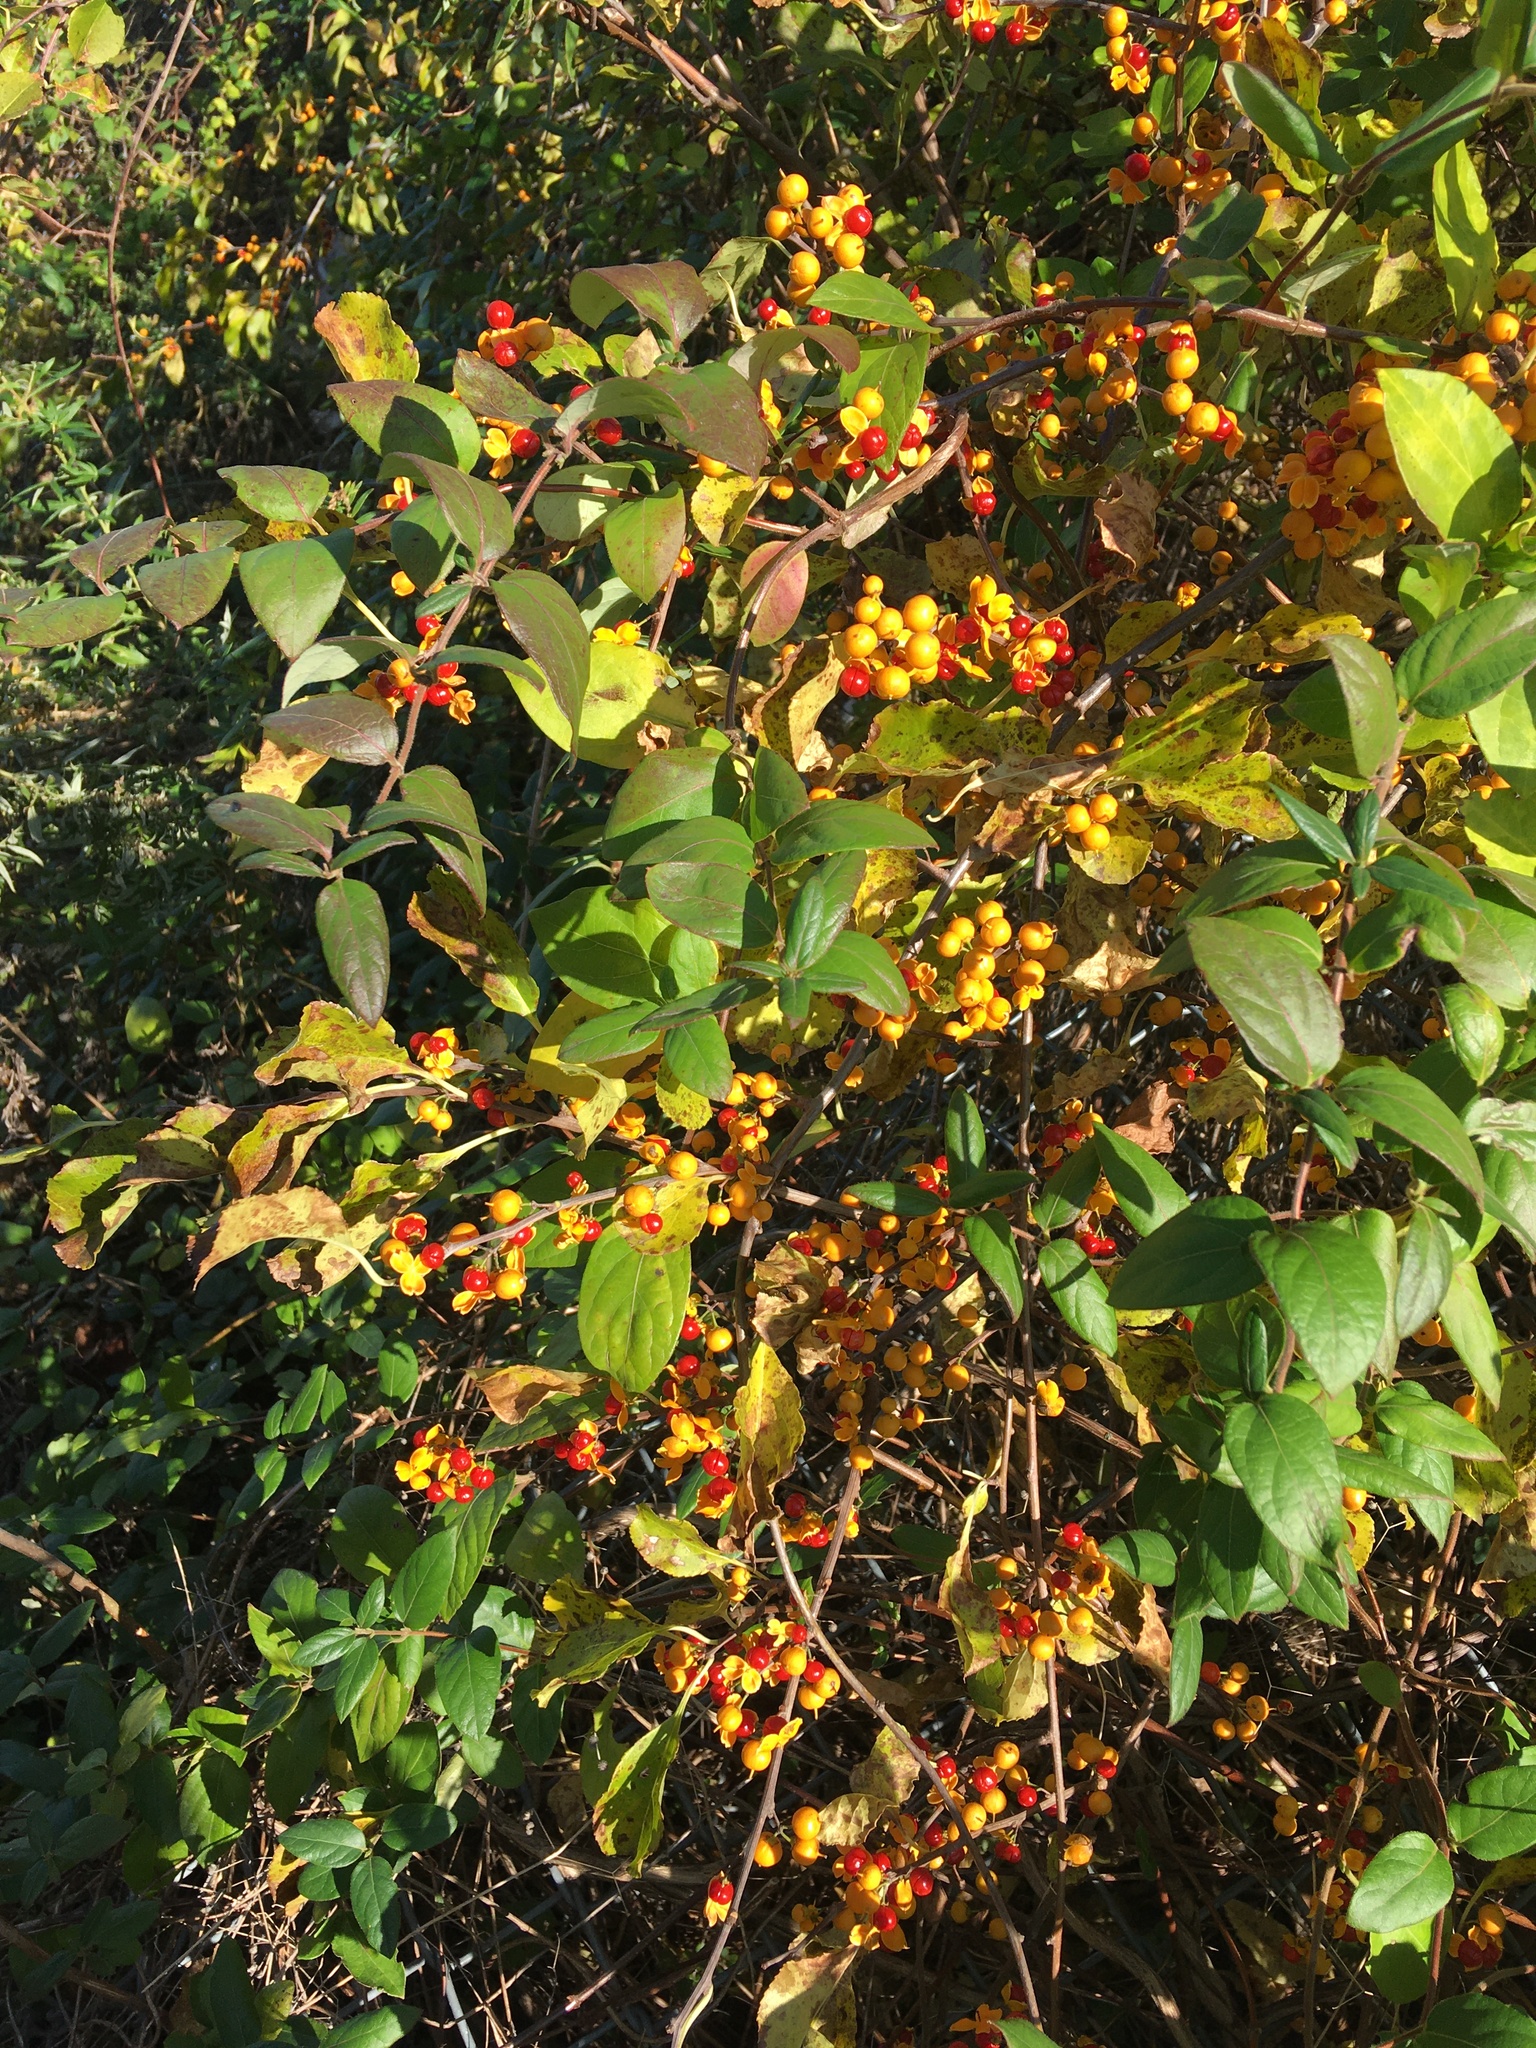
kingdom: Plantae
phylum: Tracheophyta
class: Magnoliopsida
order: Celastrales
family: Celastraceae
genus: Celastrus
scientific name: Celastrus orbiculatus
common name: Oriental bittersweet
